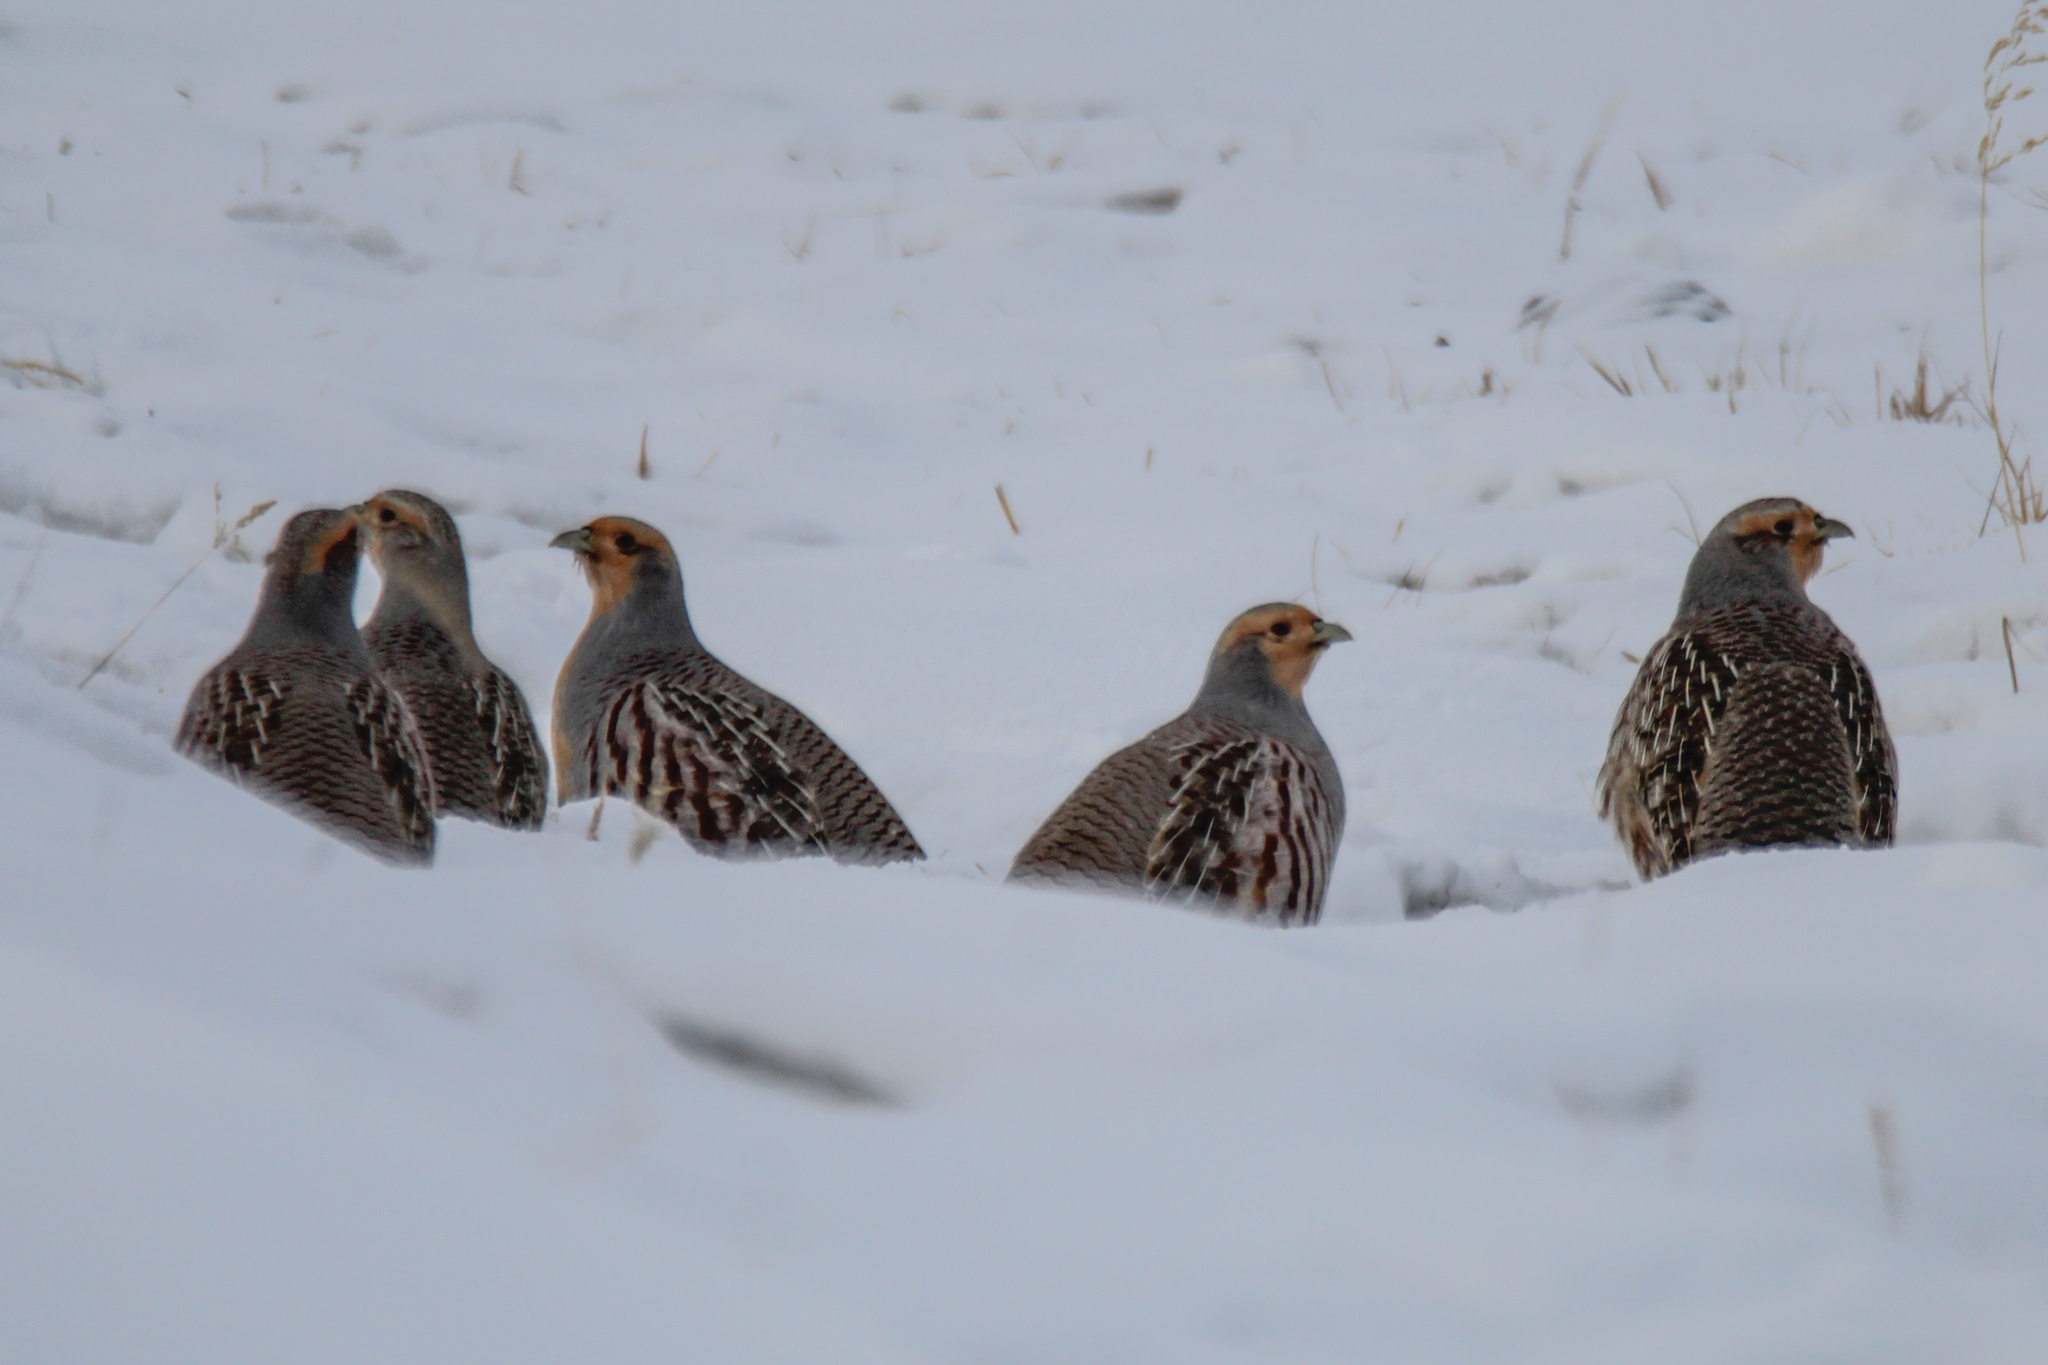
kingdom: Animalia
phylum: Chordata
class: Aves
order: Galliformes
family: Phasianidae
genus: Perdix
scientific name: Perdix dauurica
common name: Daurian partridge
